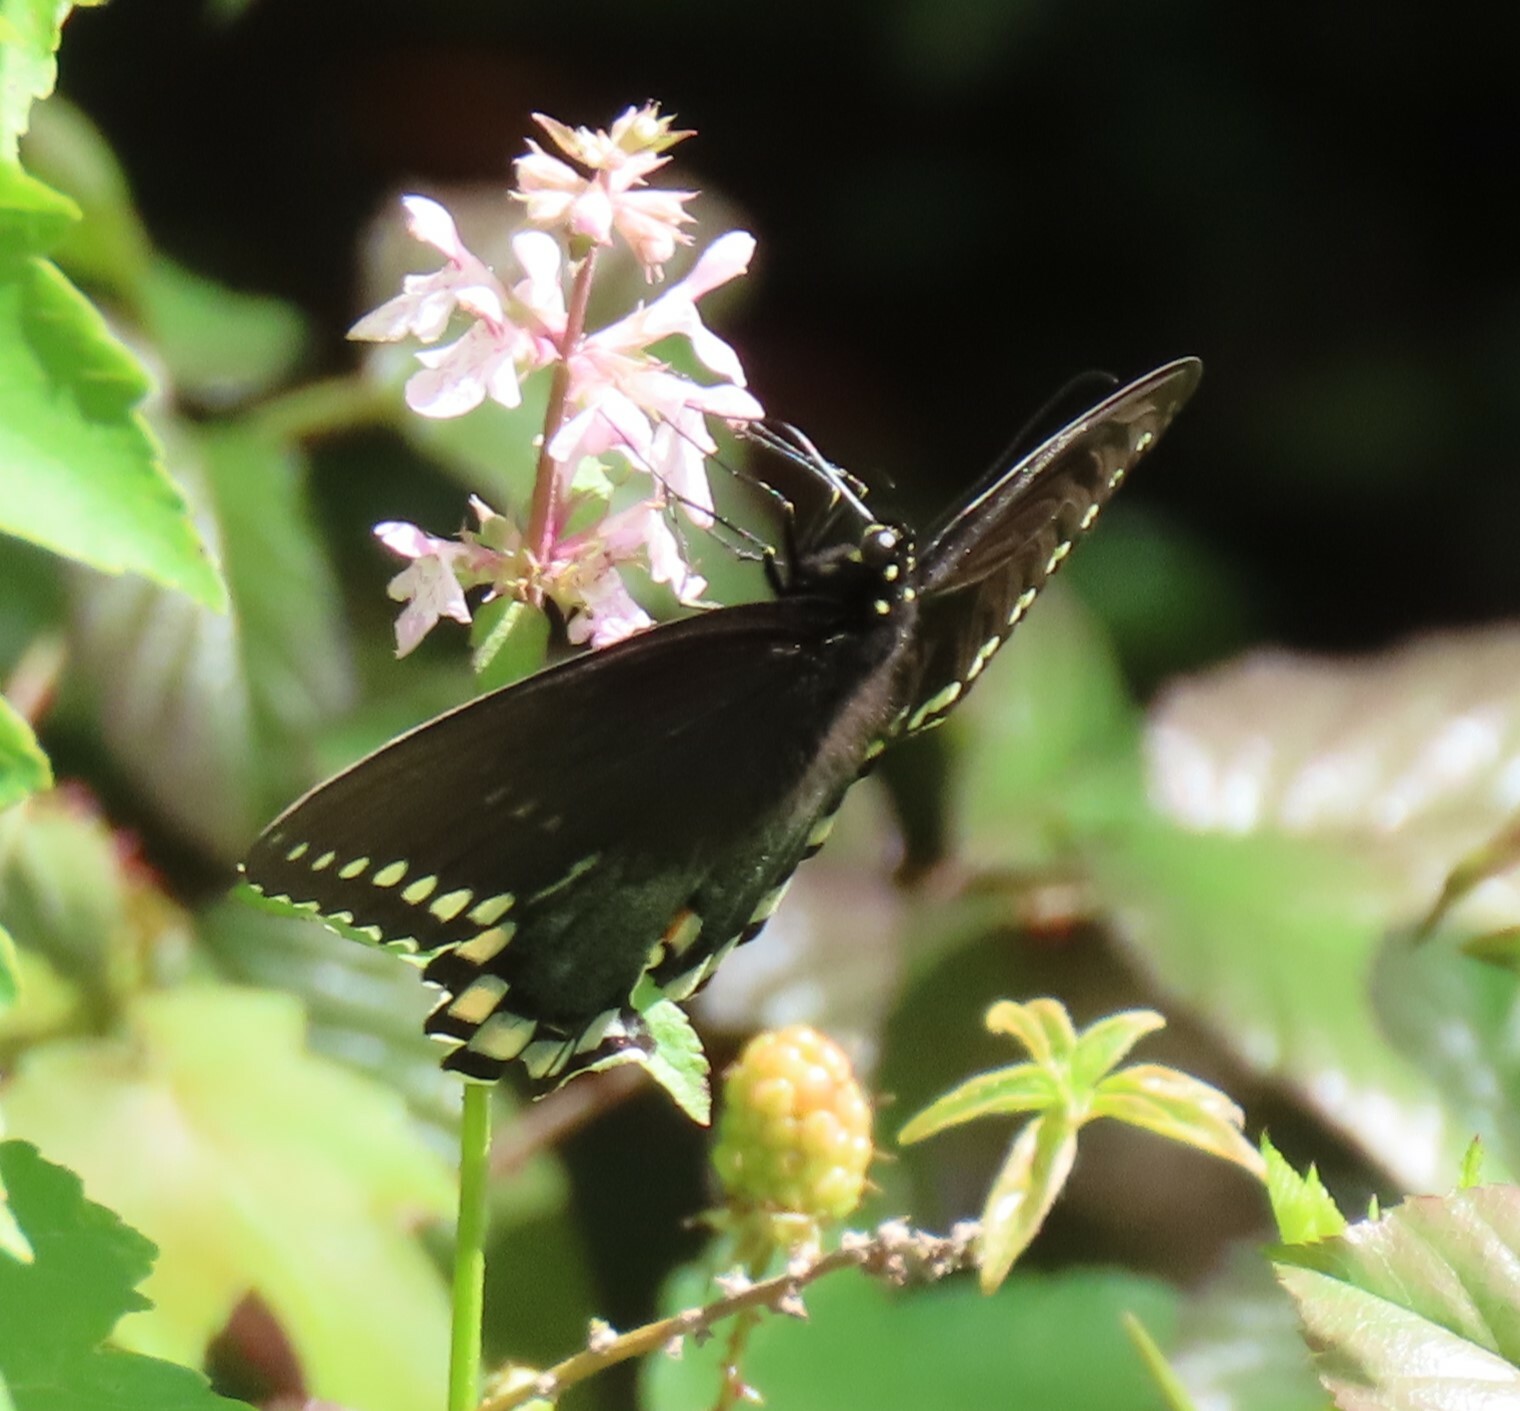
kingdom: Animalia
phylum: Arthropoda
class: Insecta
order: Lepidoptera
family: Papilionidae
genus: Papilio
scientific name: Papilio troilus
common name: Spicebush swallowtail
